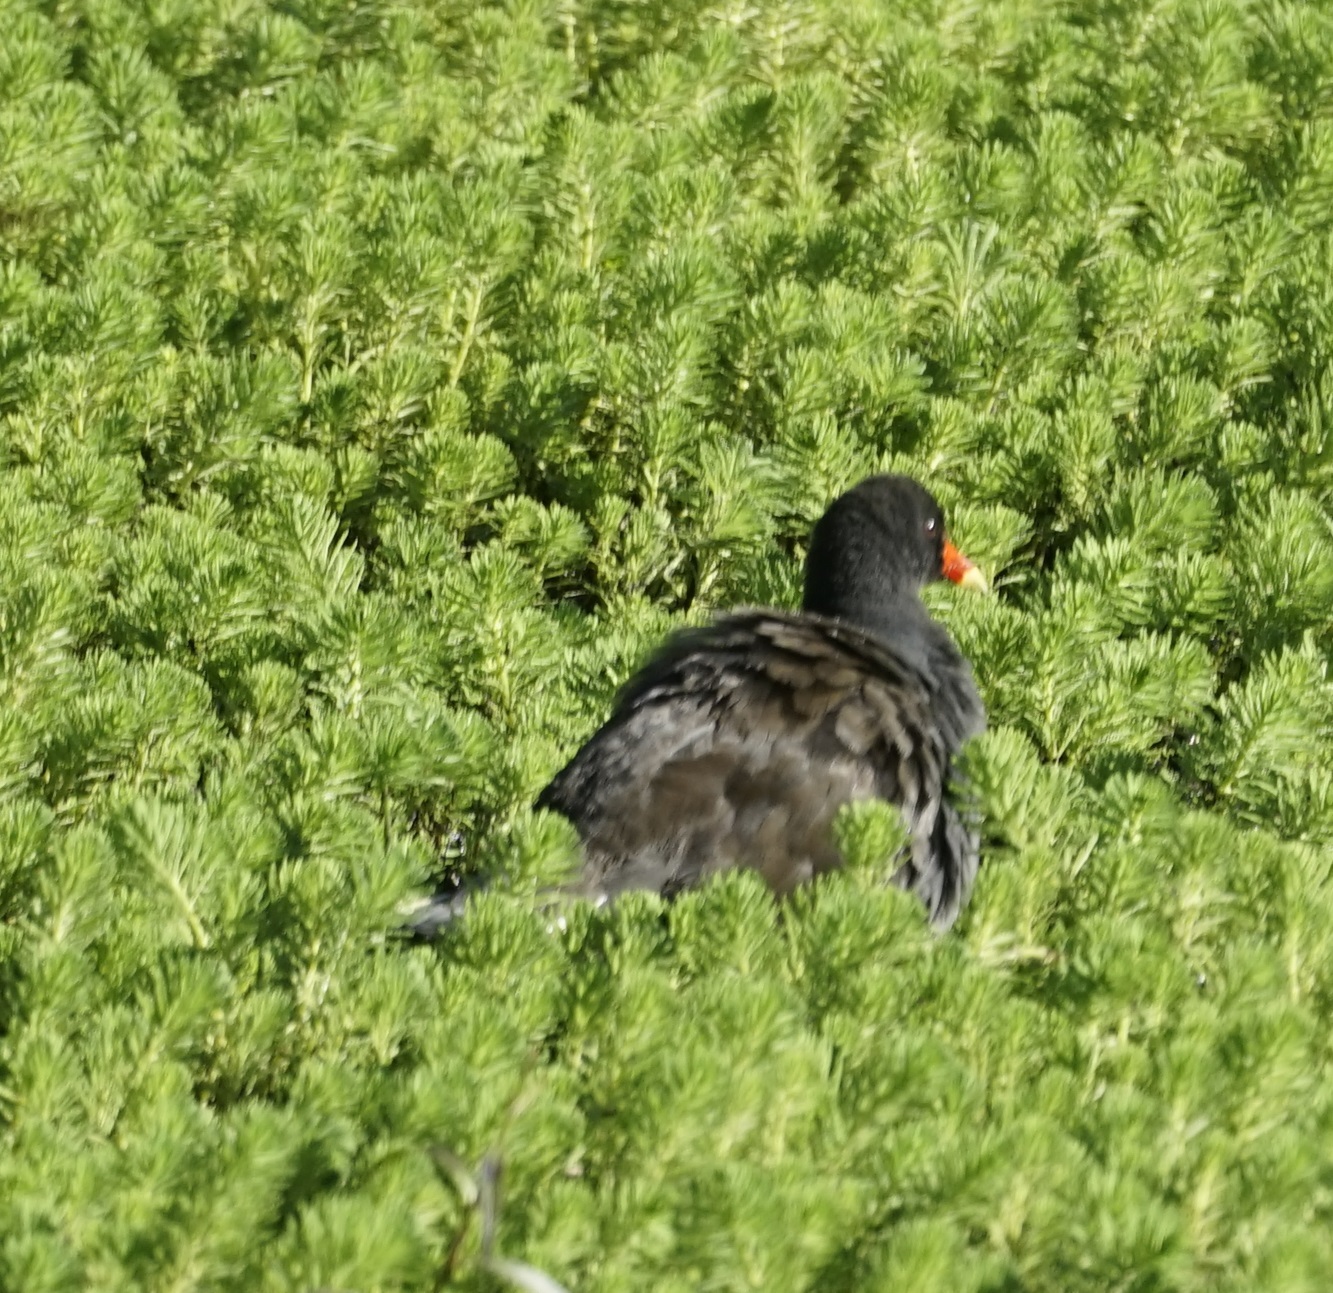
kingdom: Animalia
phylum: Chordata
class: Aves
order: Gruiformes
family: Rallidae
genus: Gallinula
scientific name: Gallinula tenebrosa
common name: Dusky moorhen
